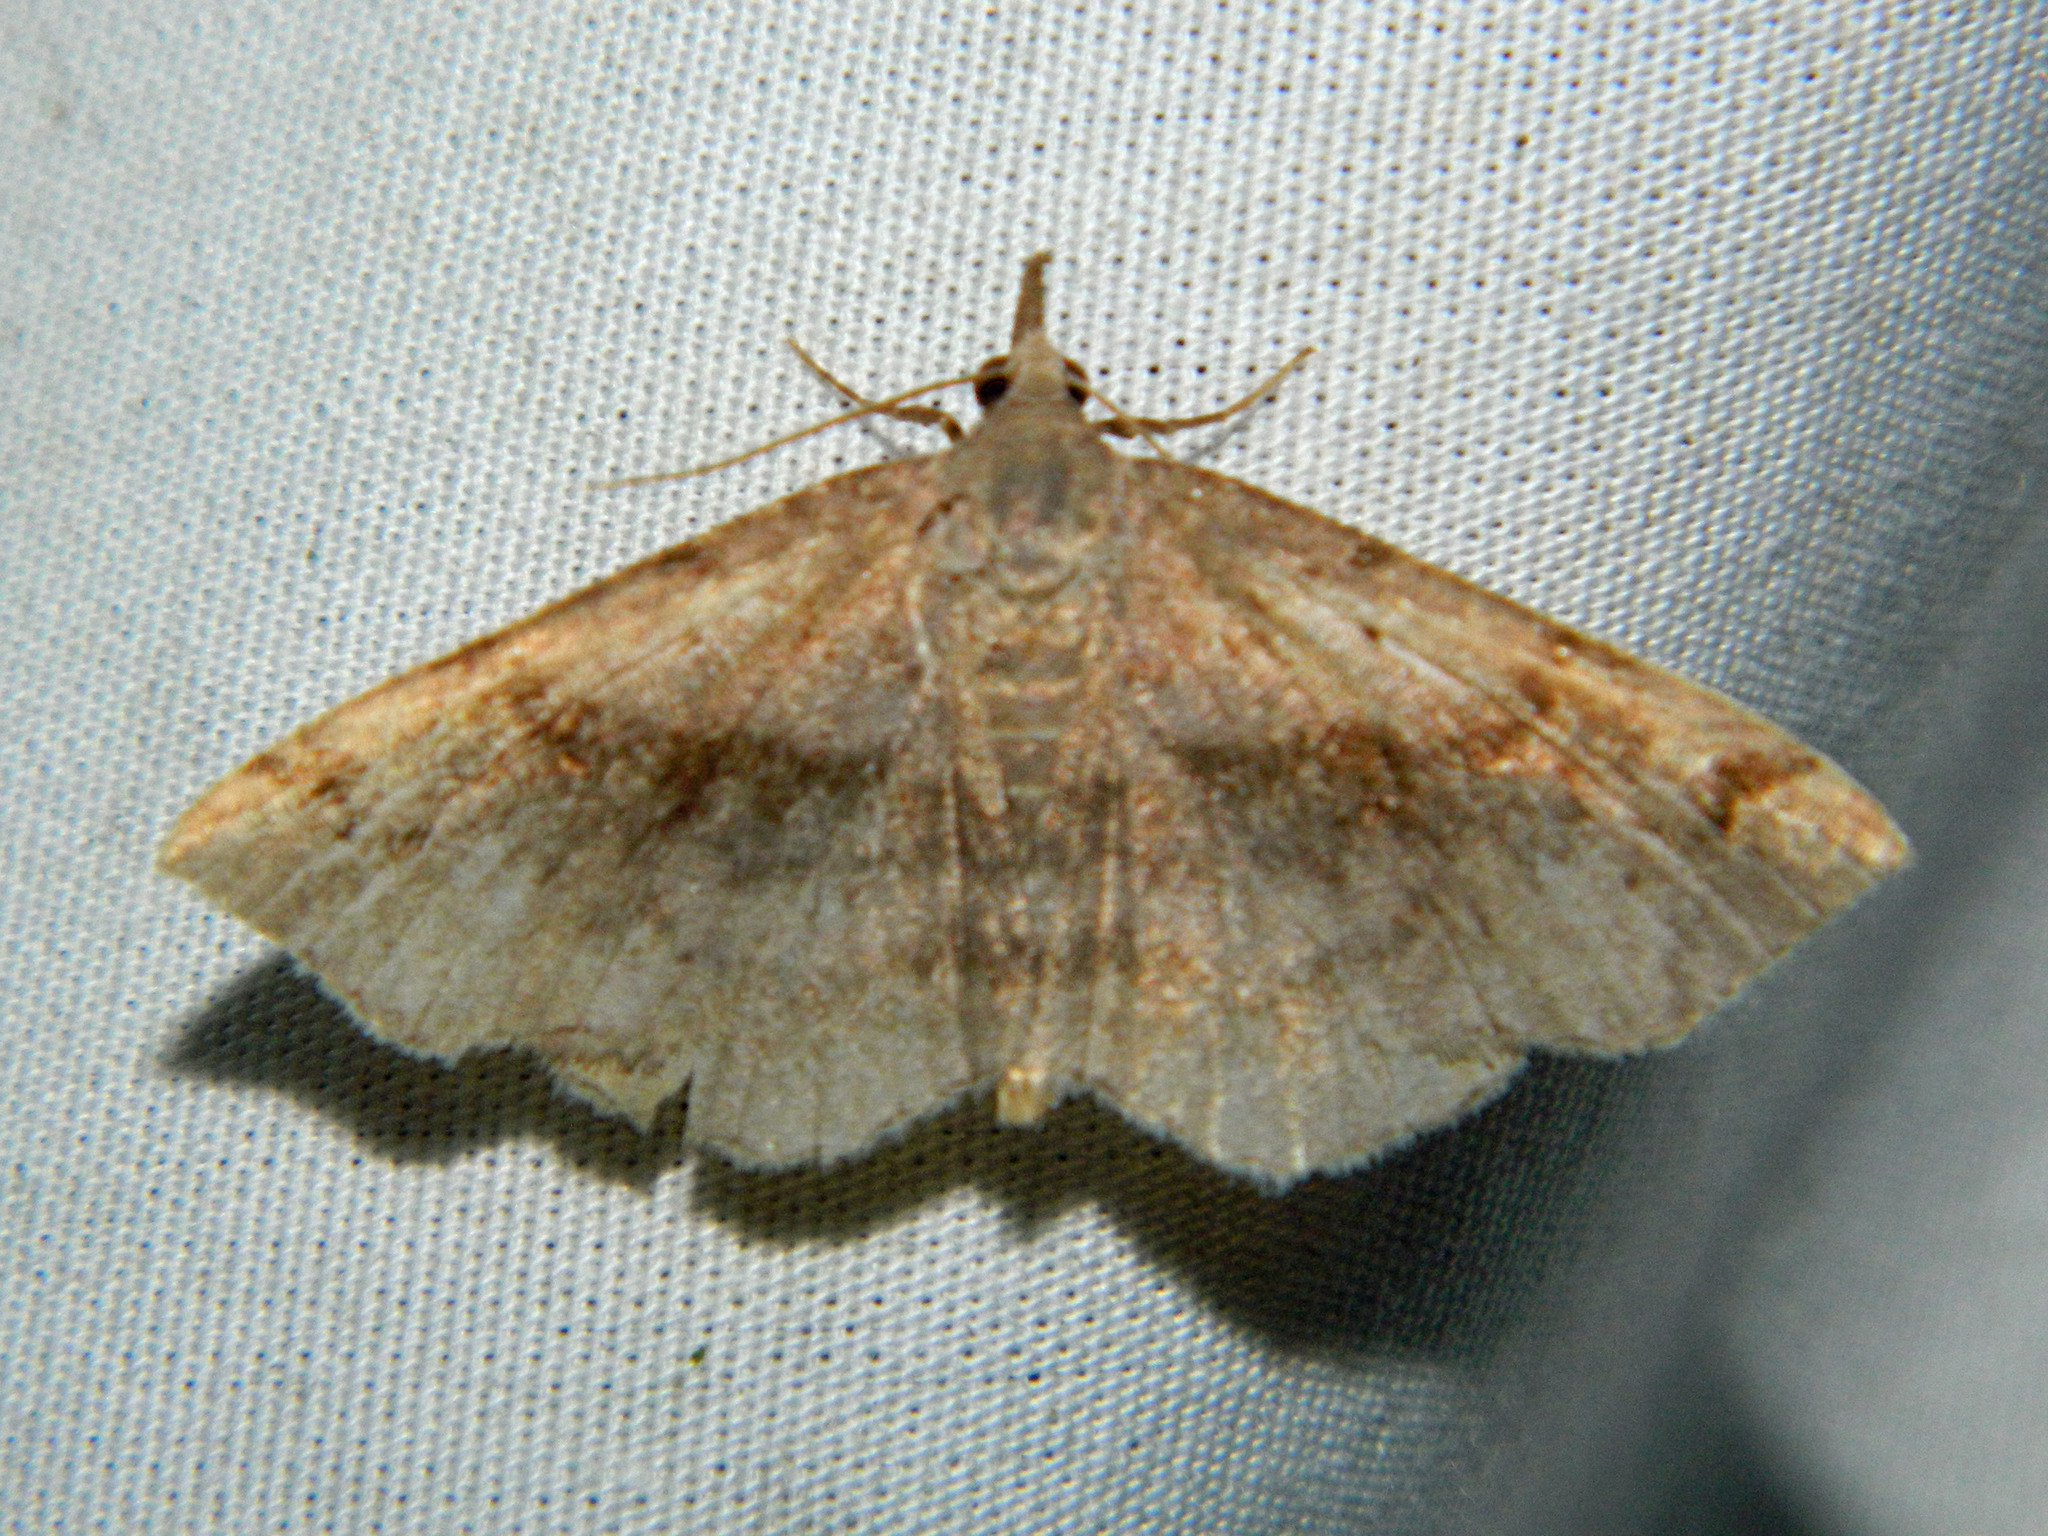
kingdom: Animalia
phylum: Arthropoda
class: Insecta
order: Lepidoptera
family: Erebidae
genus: Spargaloma
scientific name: Spargaloma sexpunctata
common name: Six-spotted gray
